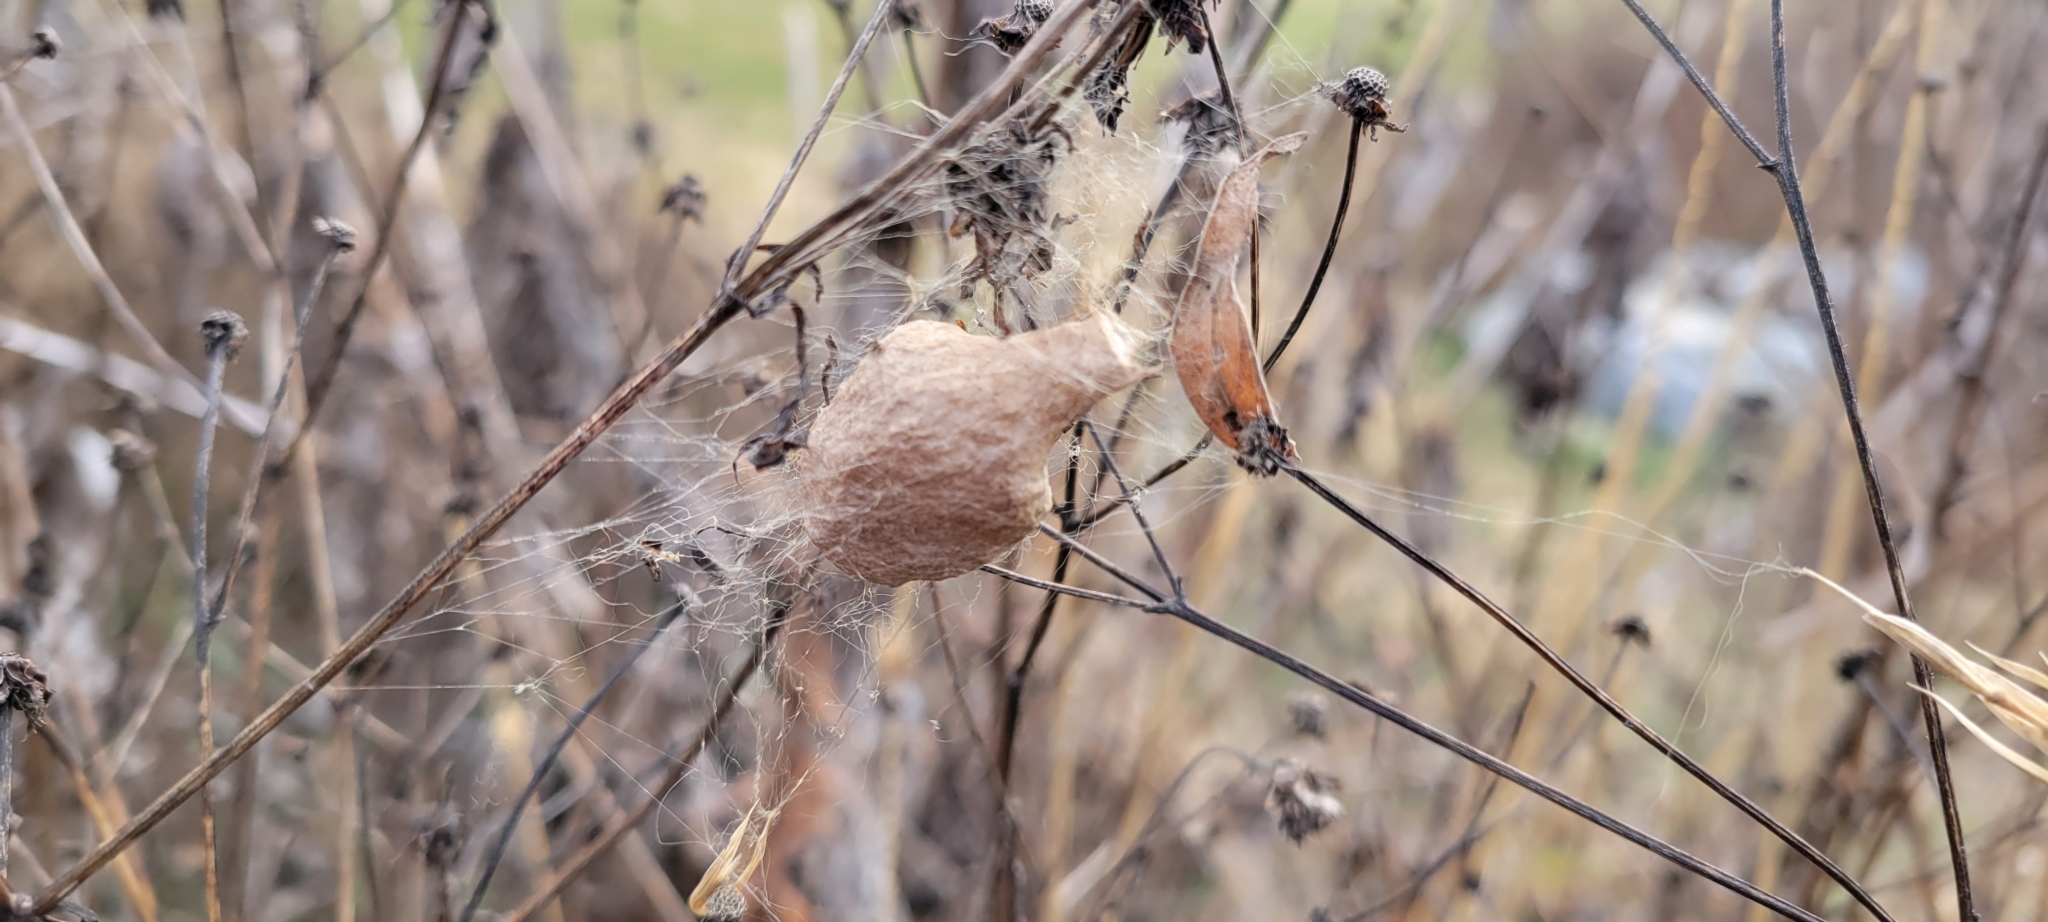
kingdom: Animalia
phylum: Arthropoda
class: Arachnida
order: Araneae
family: Araneidae
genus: Argiope
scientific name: Argiope aurantia
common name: Orb weavers
